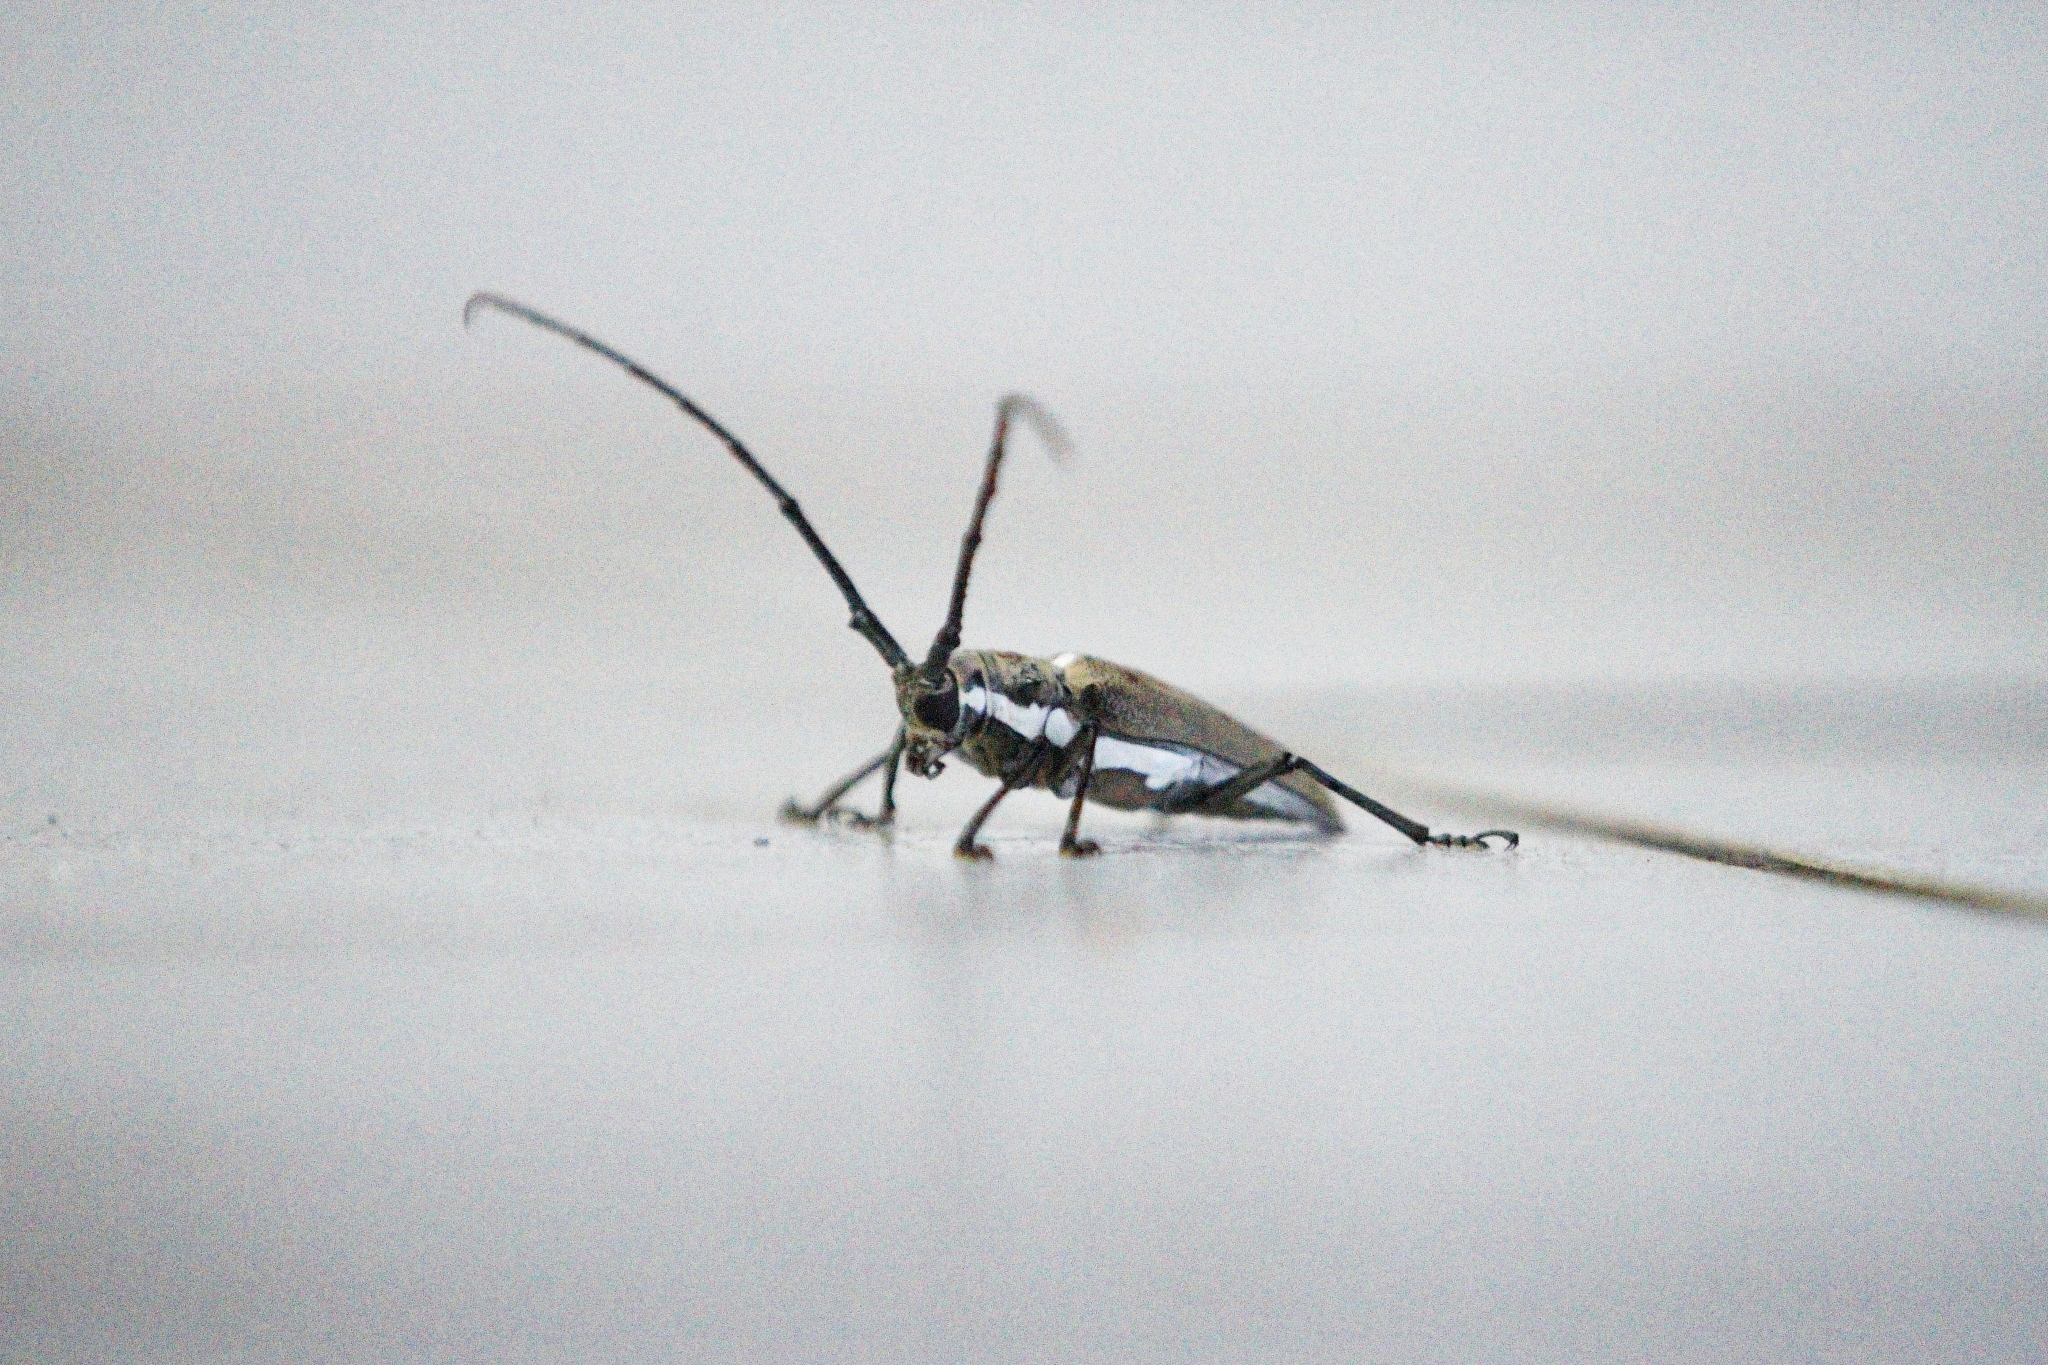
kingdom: Animalia
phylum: Arthropoda
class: Insecta
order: Coleoptera
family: Cerambycidae
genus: Batocera
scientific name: Batocera rufomaculata
